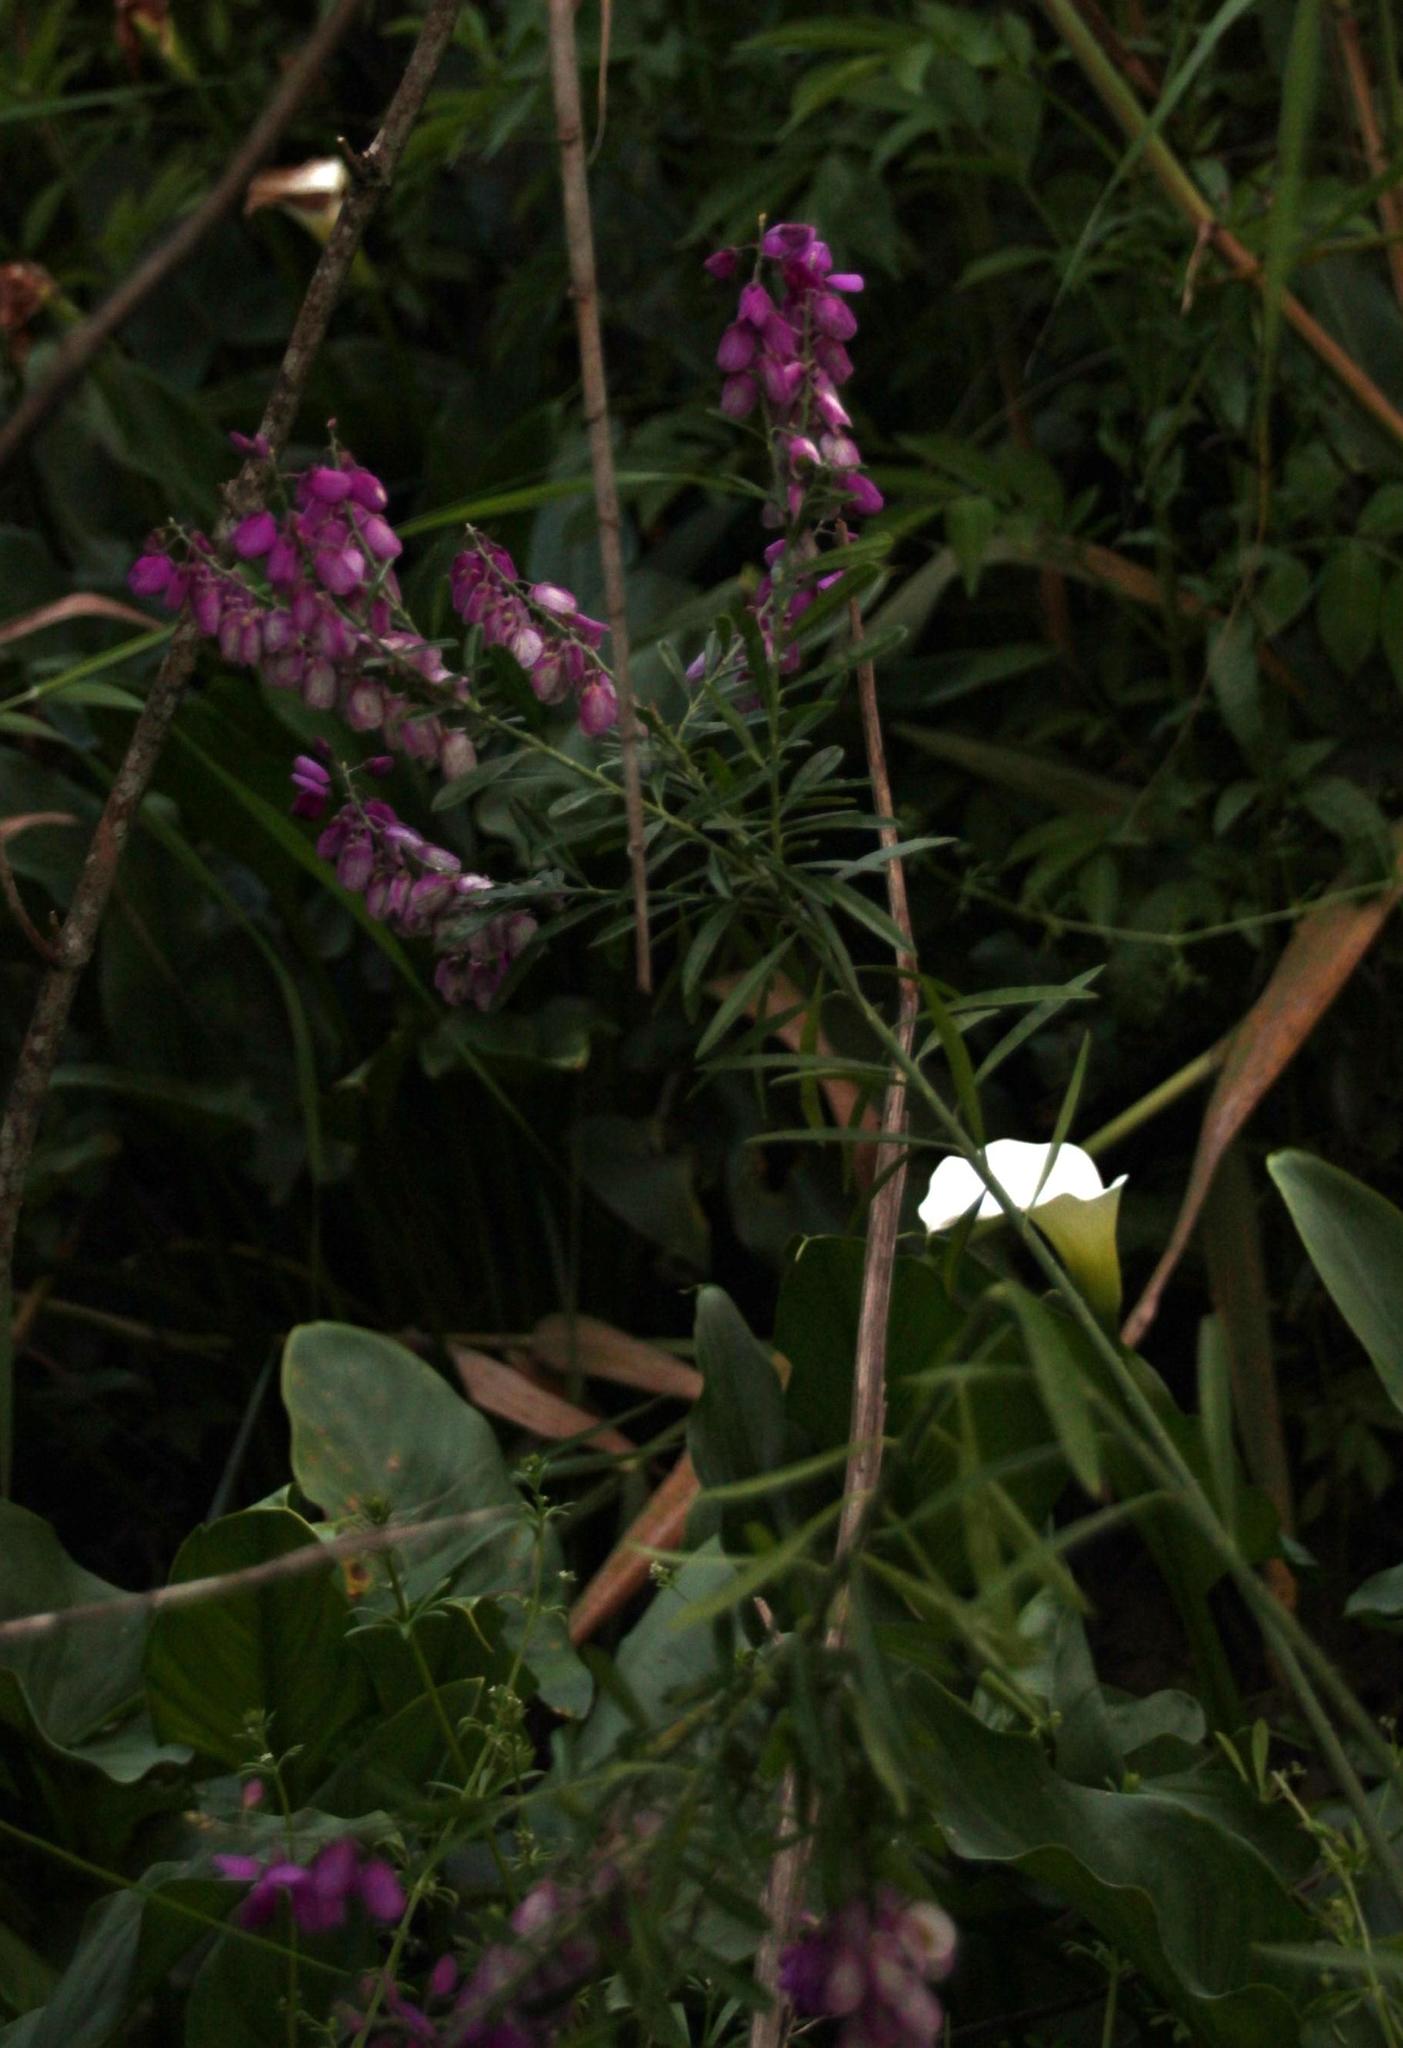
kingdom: Plantae
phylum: Tracheophyta
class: Magnoliopsida
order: Fabales
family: Polygalaceae
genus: Polygala
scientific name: Polygala virgata
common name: Milkwort
